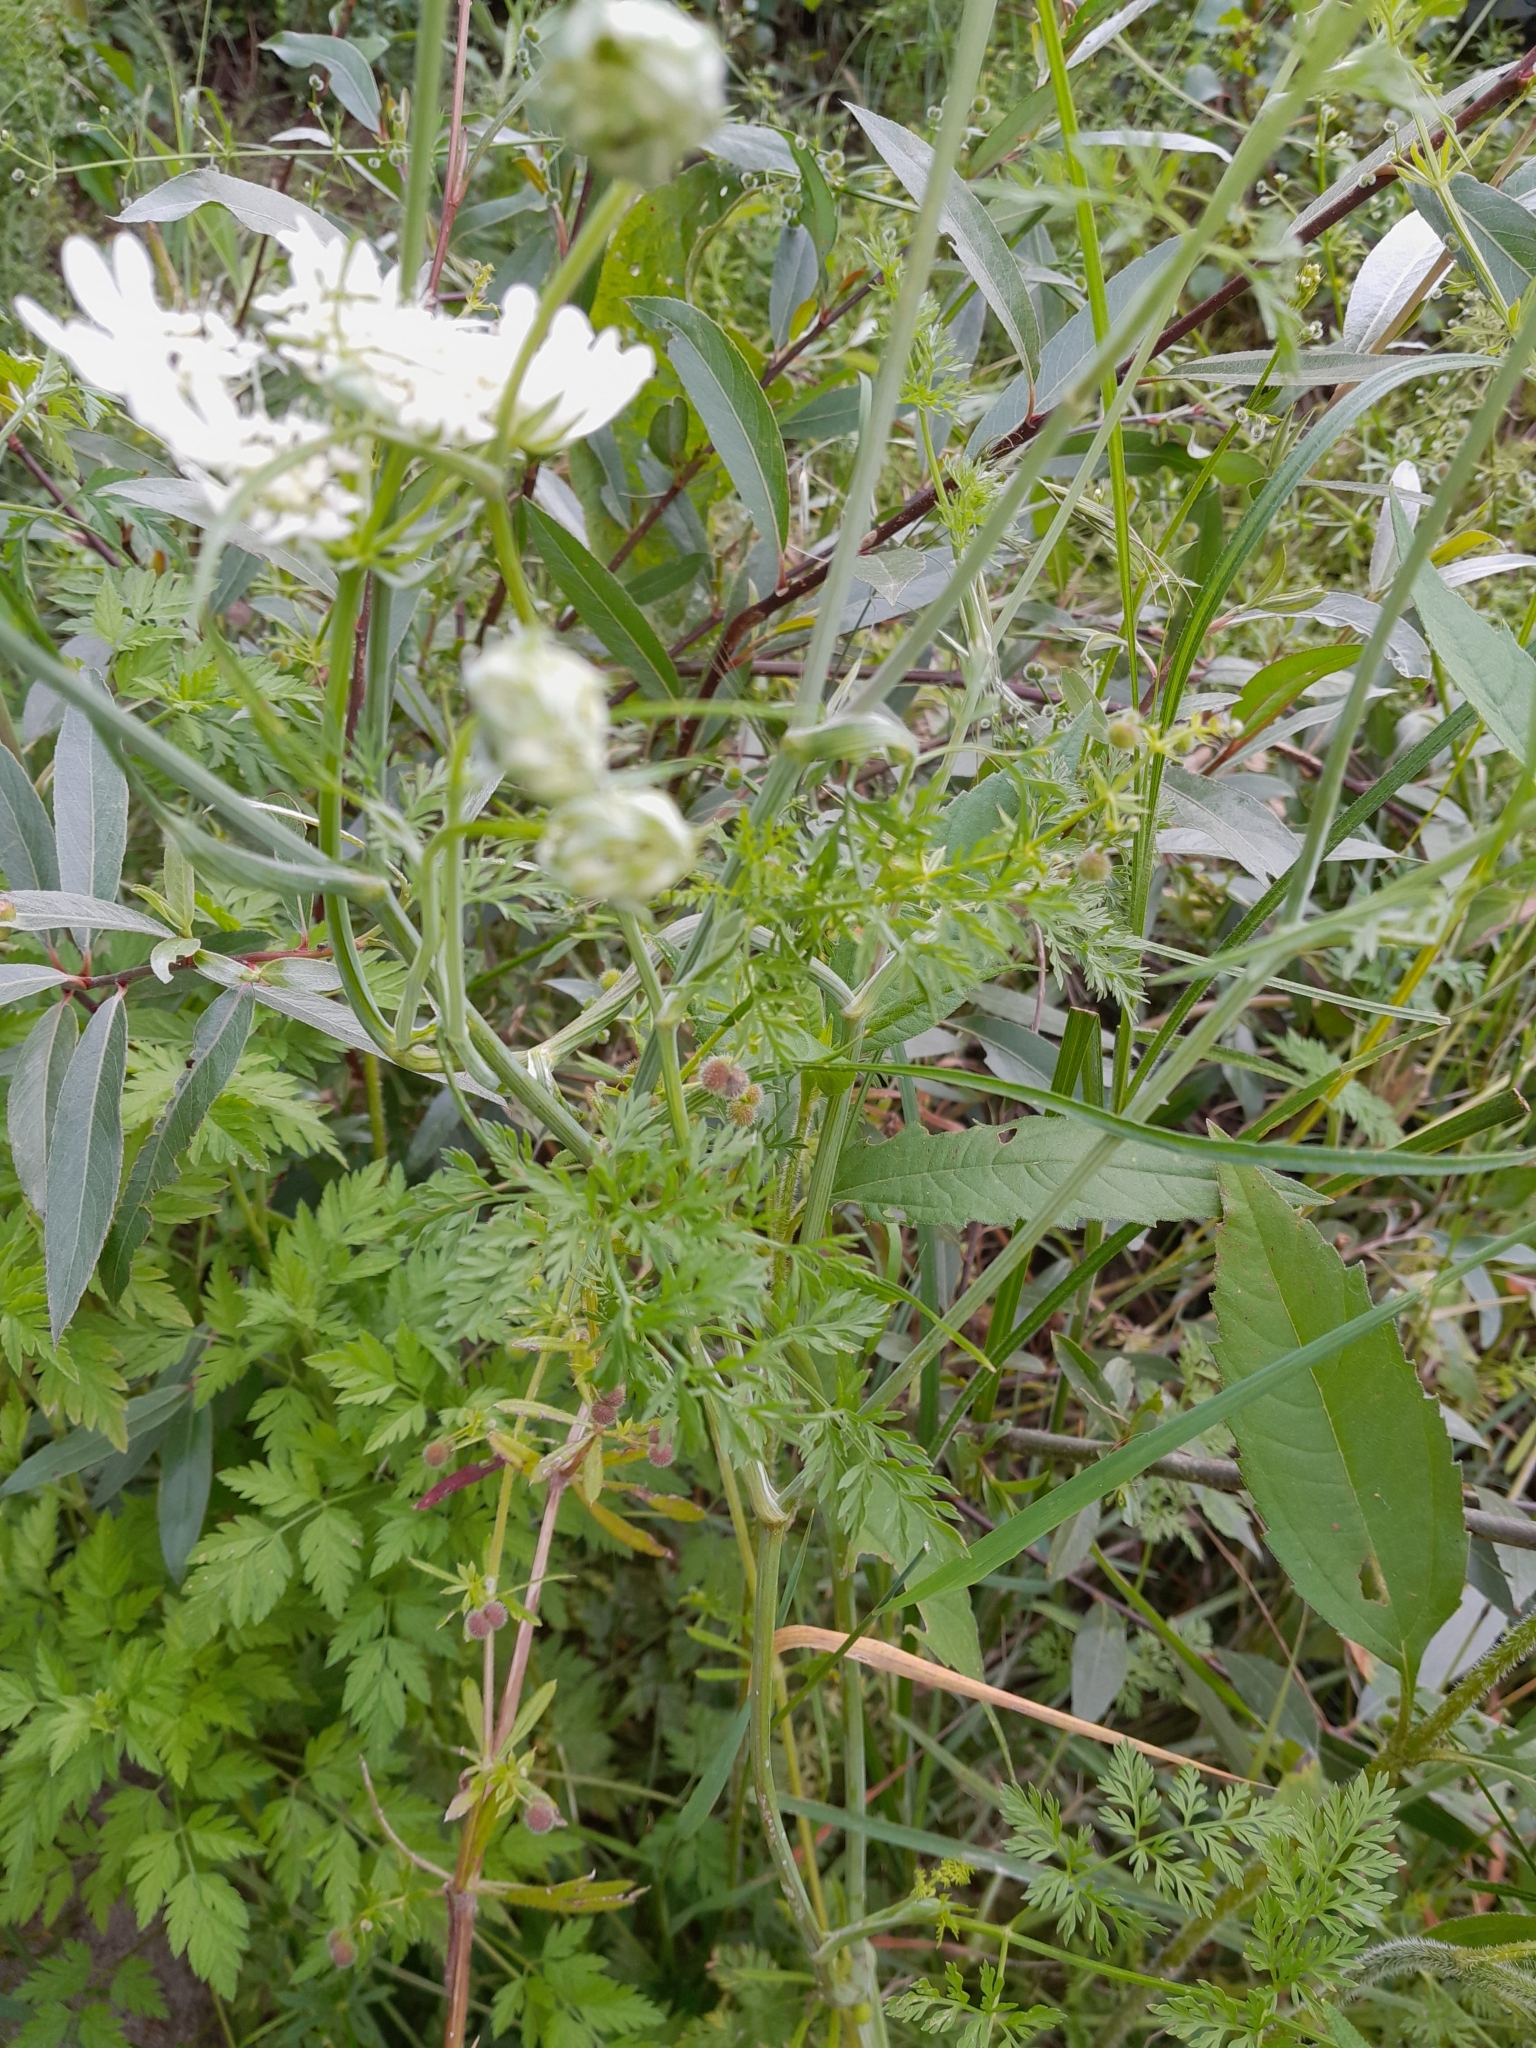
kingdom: Plantae
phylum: Tracheophyta
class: Magnoliopsida
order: Apiales
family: Apiaceae
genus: Orlaya
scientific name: Orlaya grandiflora
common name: White lace flower
